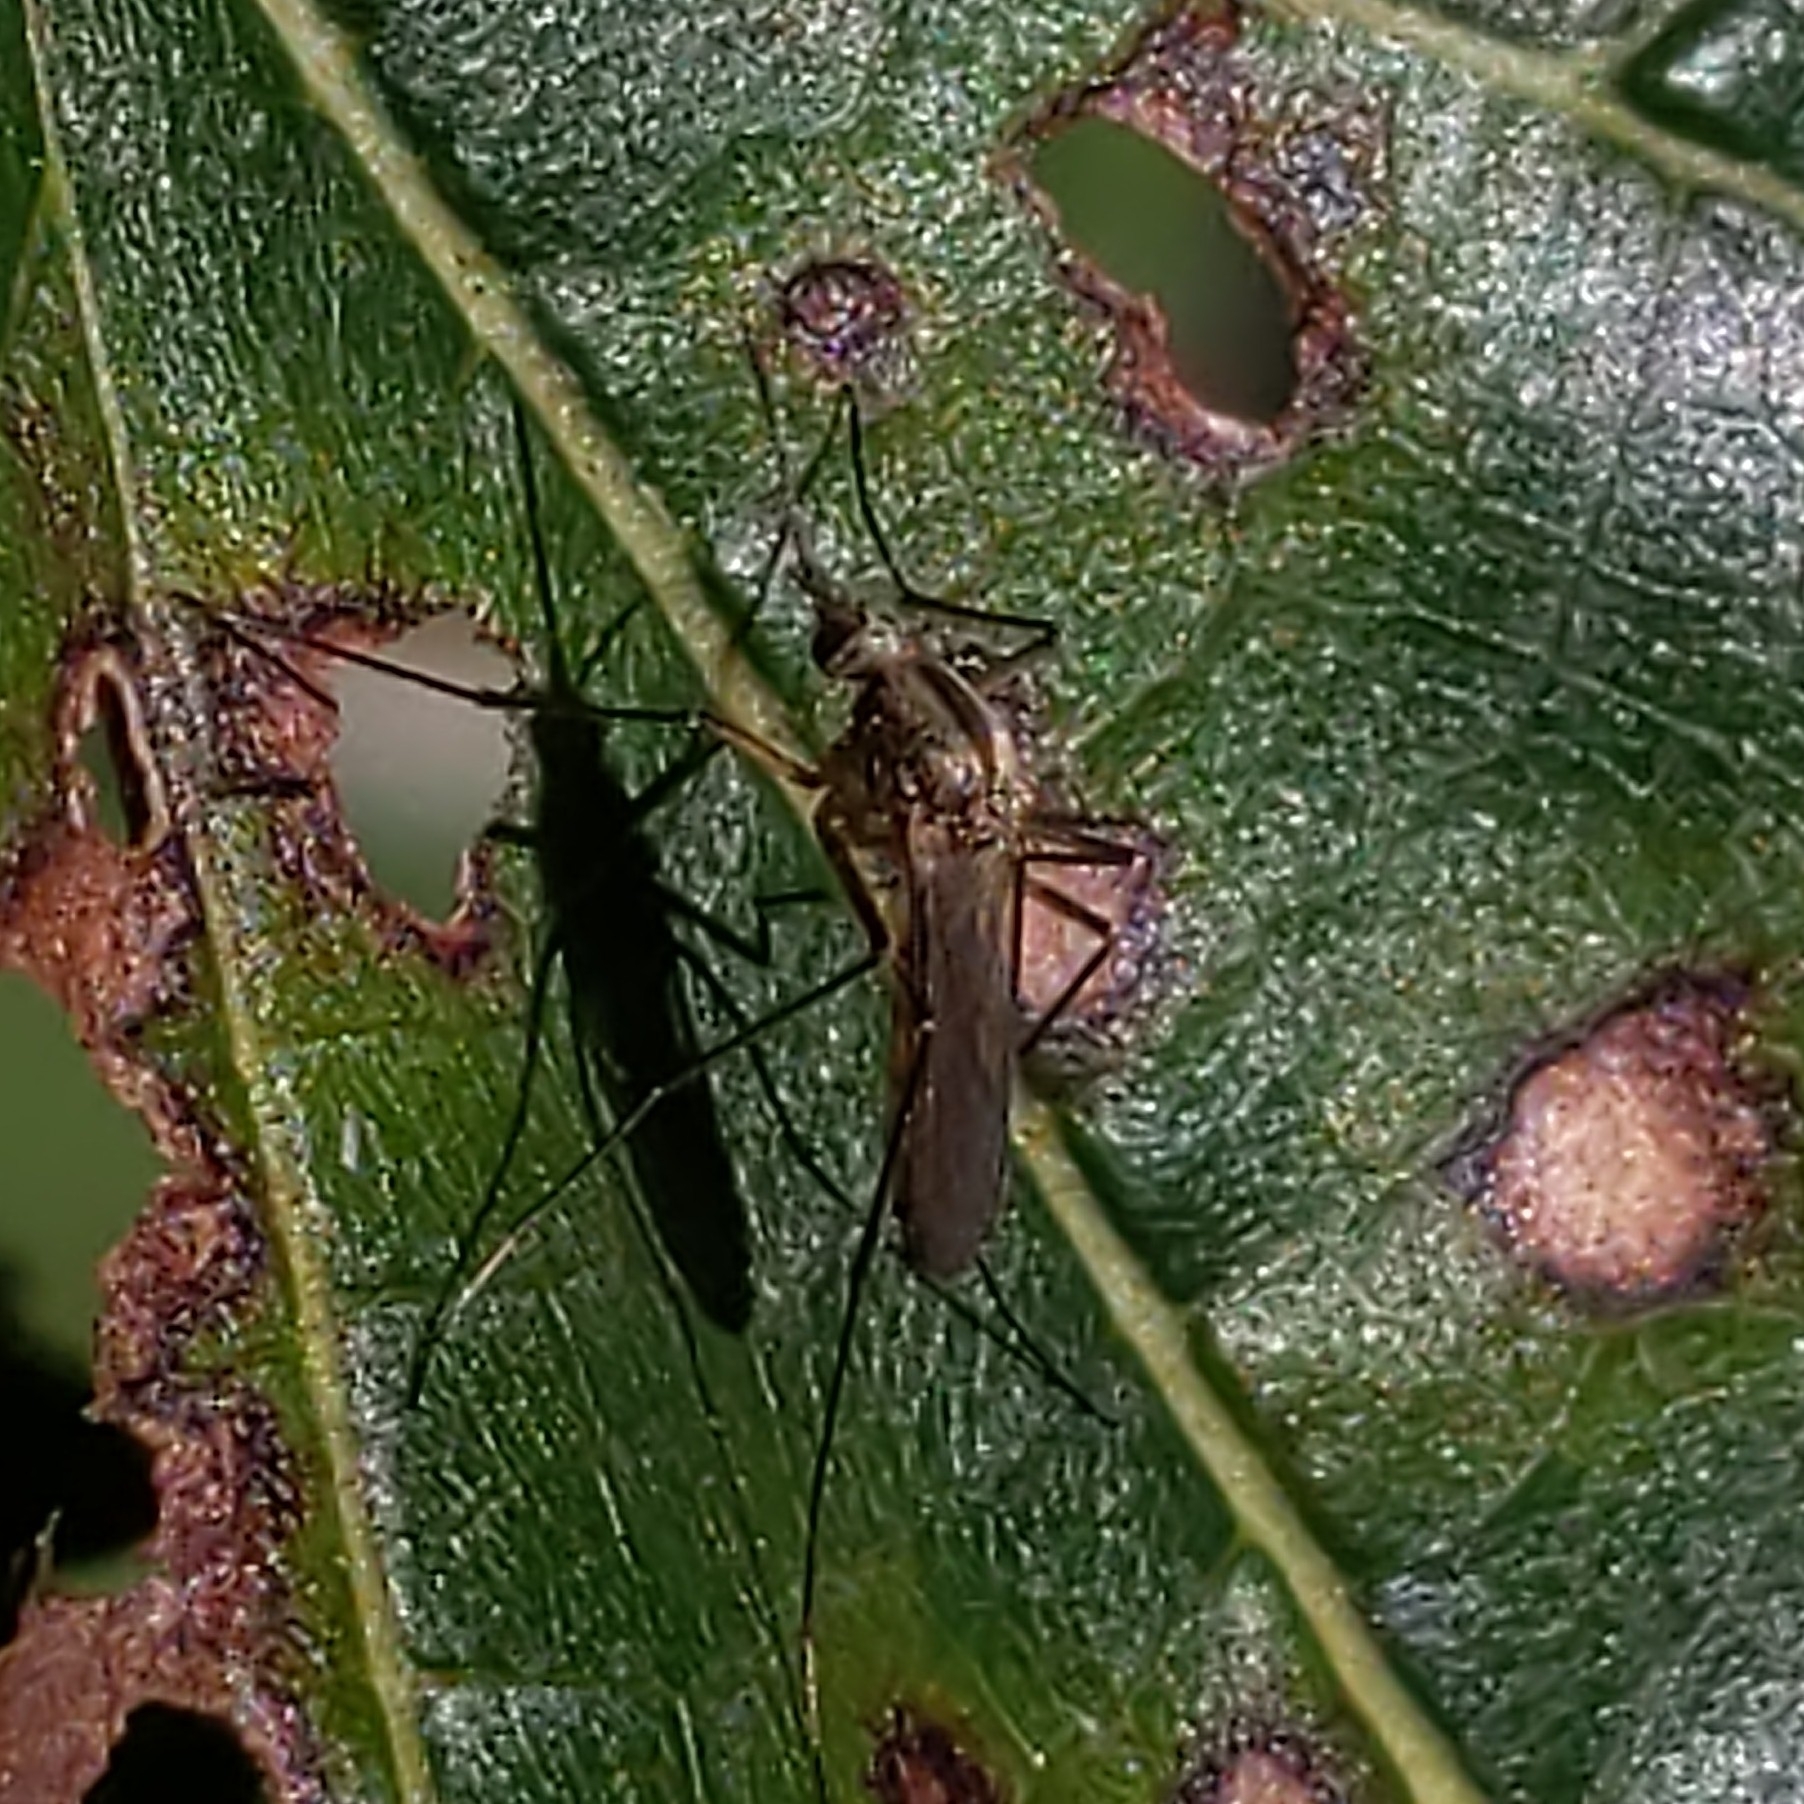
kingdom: Animalia
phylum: Arthropoda
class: Insecta
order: Diptera
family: Culicidae
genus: Aedes
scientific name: Aedes trivittatus
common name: Plains floodwater mosquito
